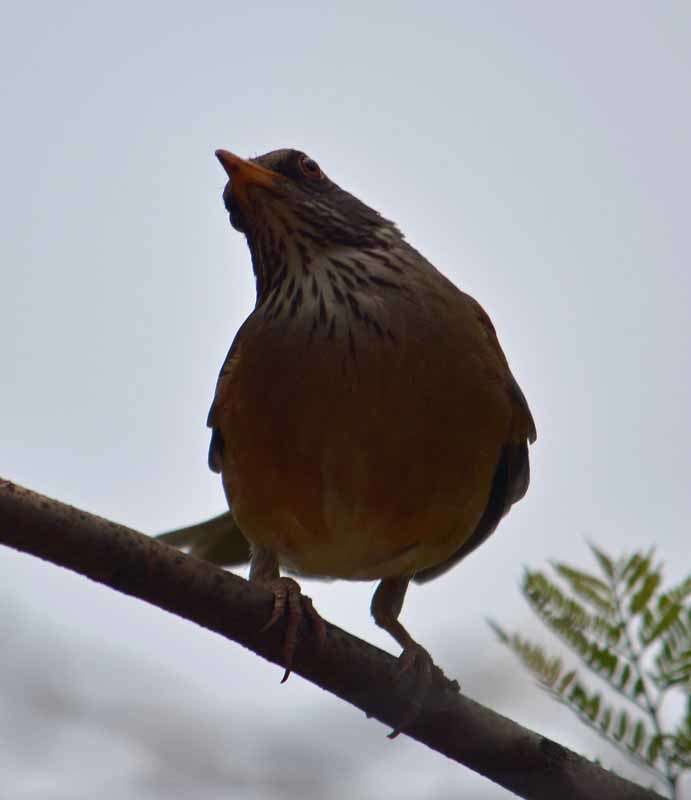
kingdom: Animalia
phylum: Chordata
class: Aves
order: Passeriformes
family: Turdidae
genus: Turdus
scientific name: Turdus rufopalliatus
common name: Rufous-backed robin
